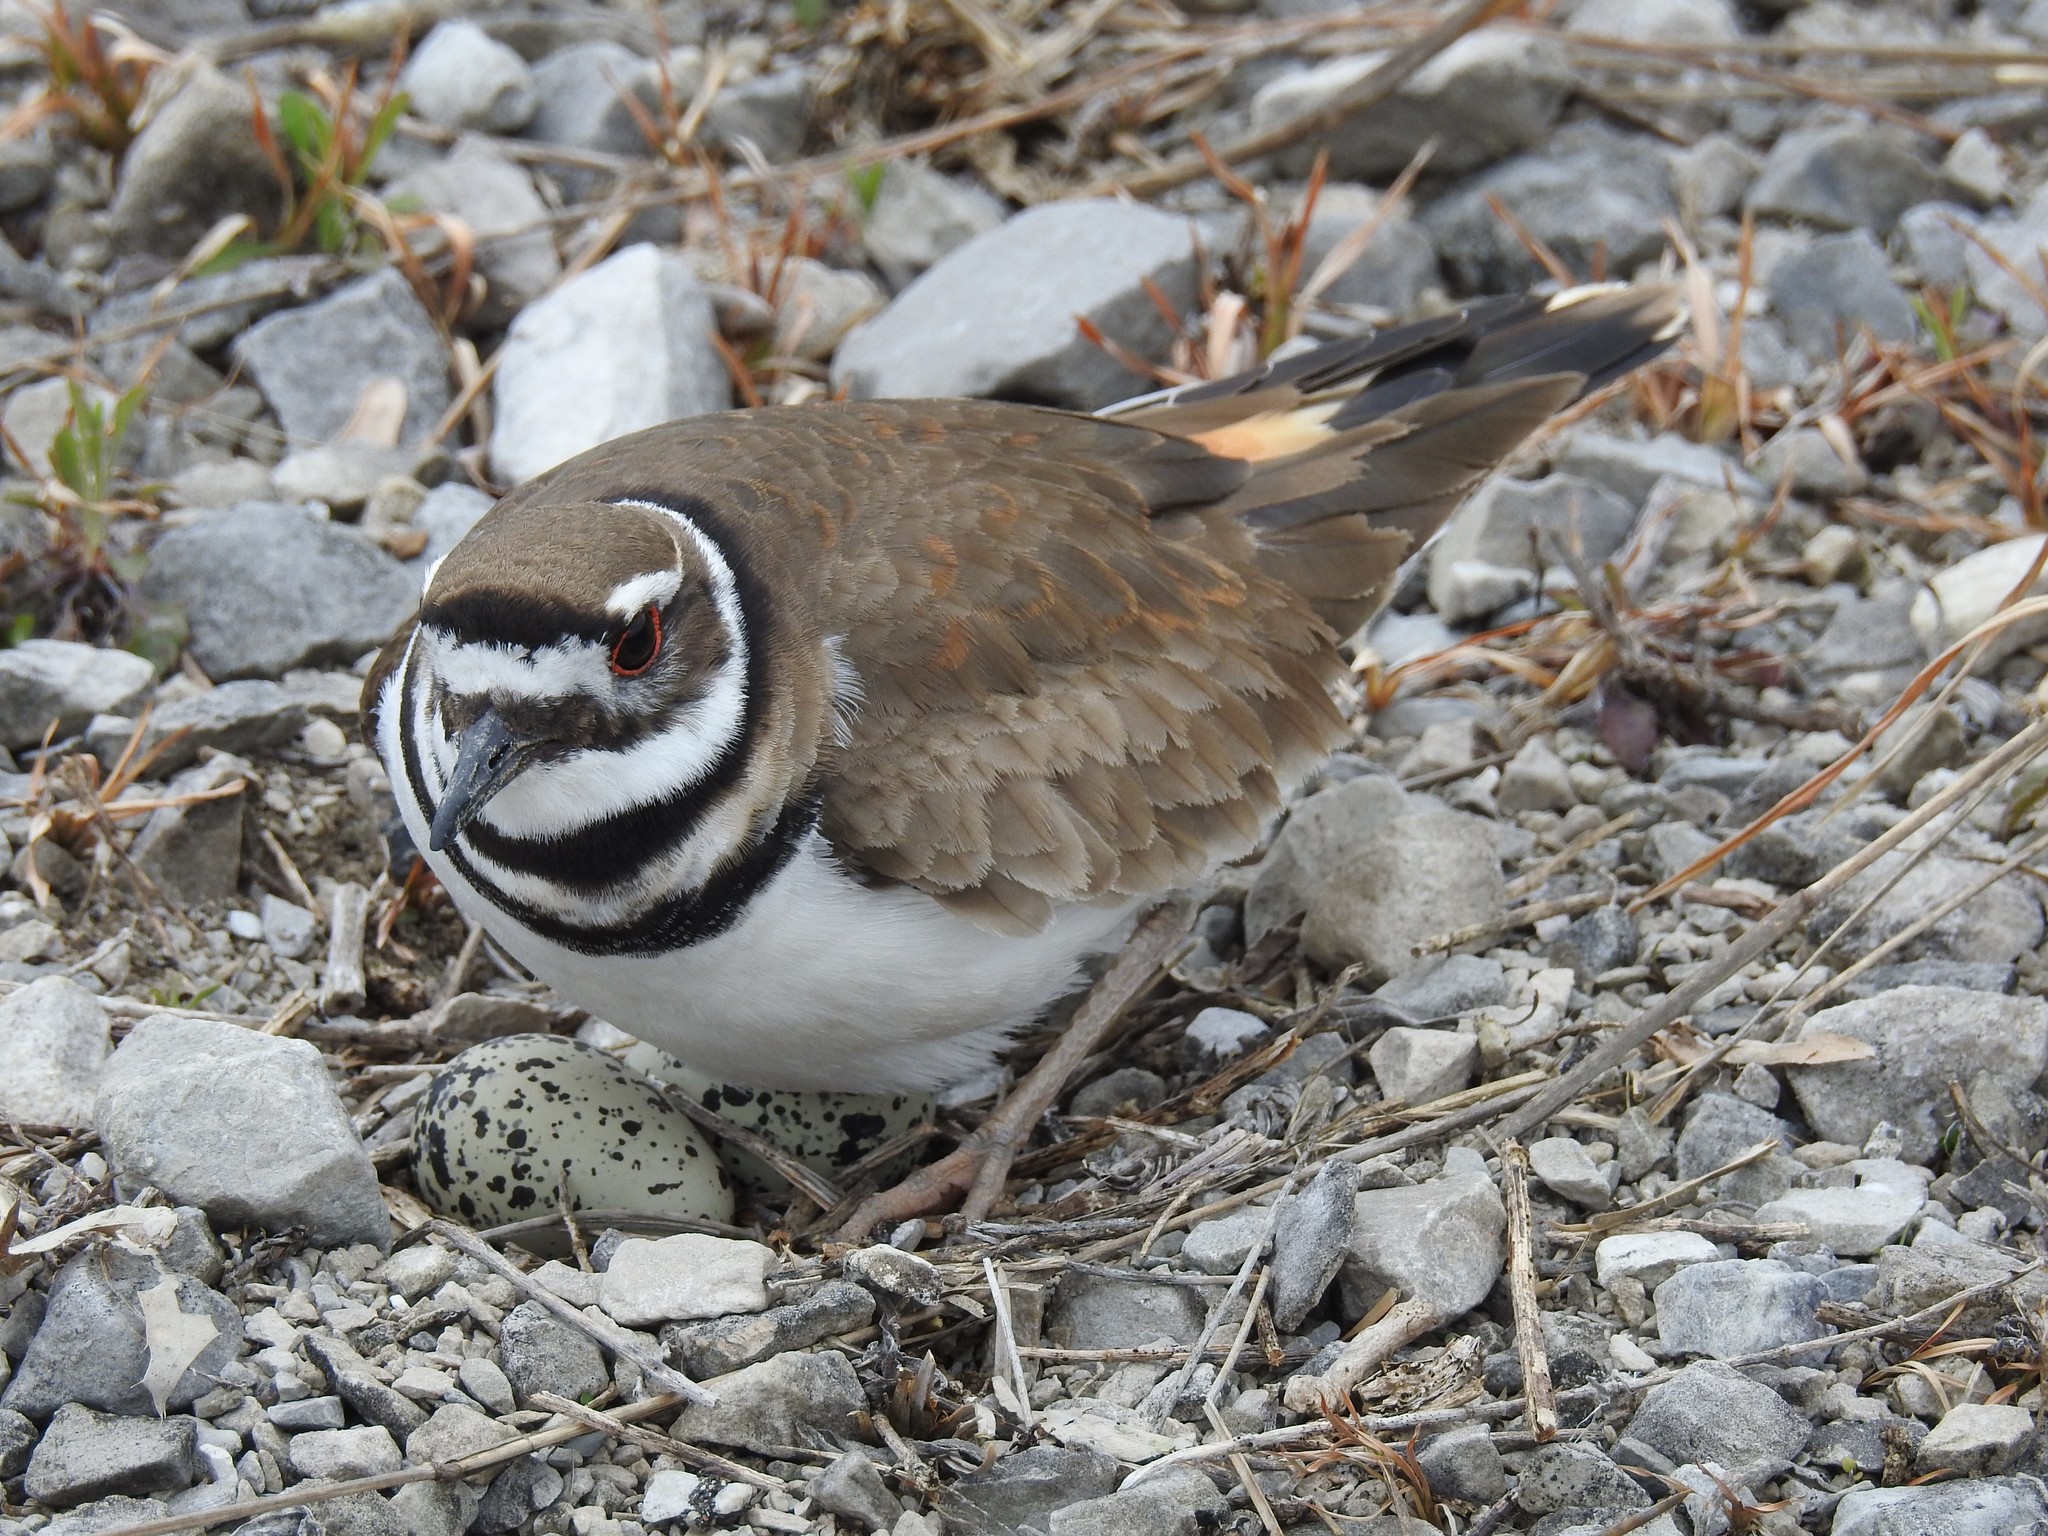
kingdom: Animalia
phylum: Chordata
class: Aves
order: Charadriiformes
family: Charadriidae
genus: Charadrius
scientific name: Charadrius vociferus
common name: Killdeer
